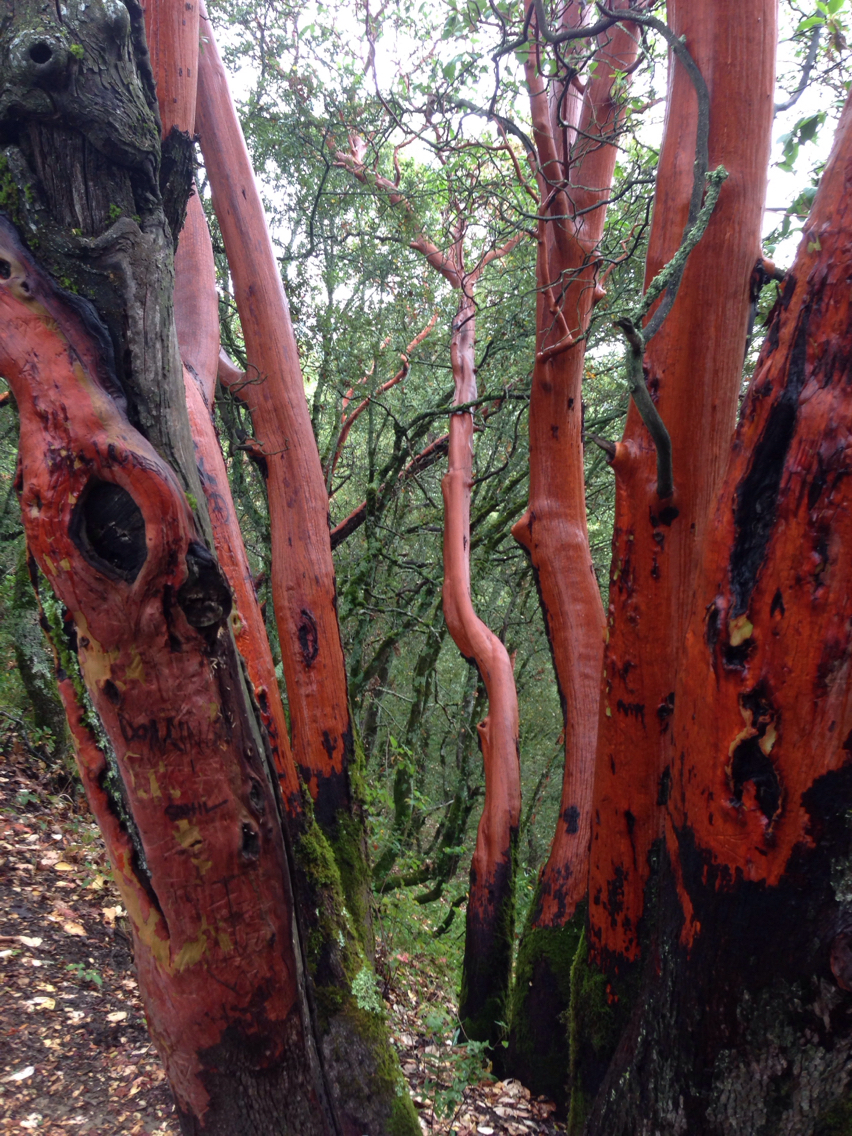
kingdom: Plantae
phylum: Tracheophyta
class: Magnoliopsida
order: Ericales
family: Ericaceae
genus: Arbutus
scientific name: Arbutus menziesii
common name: Pacific madrone
